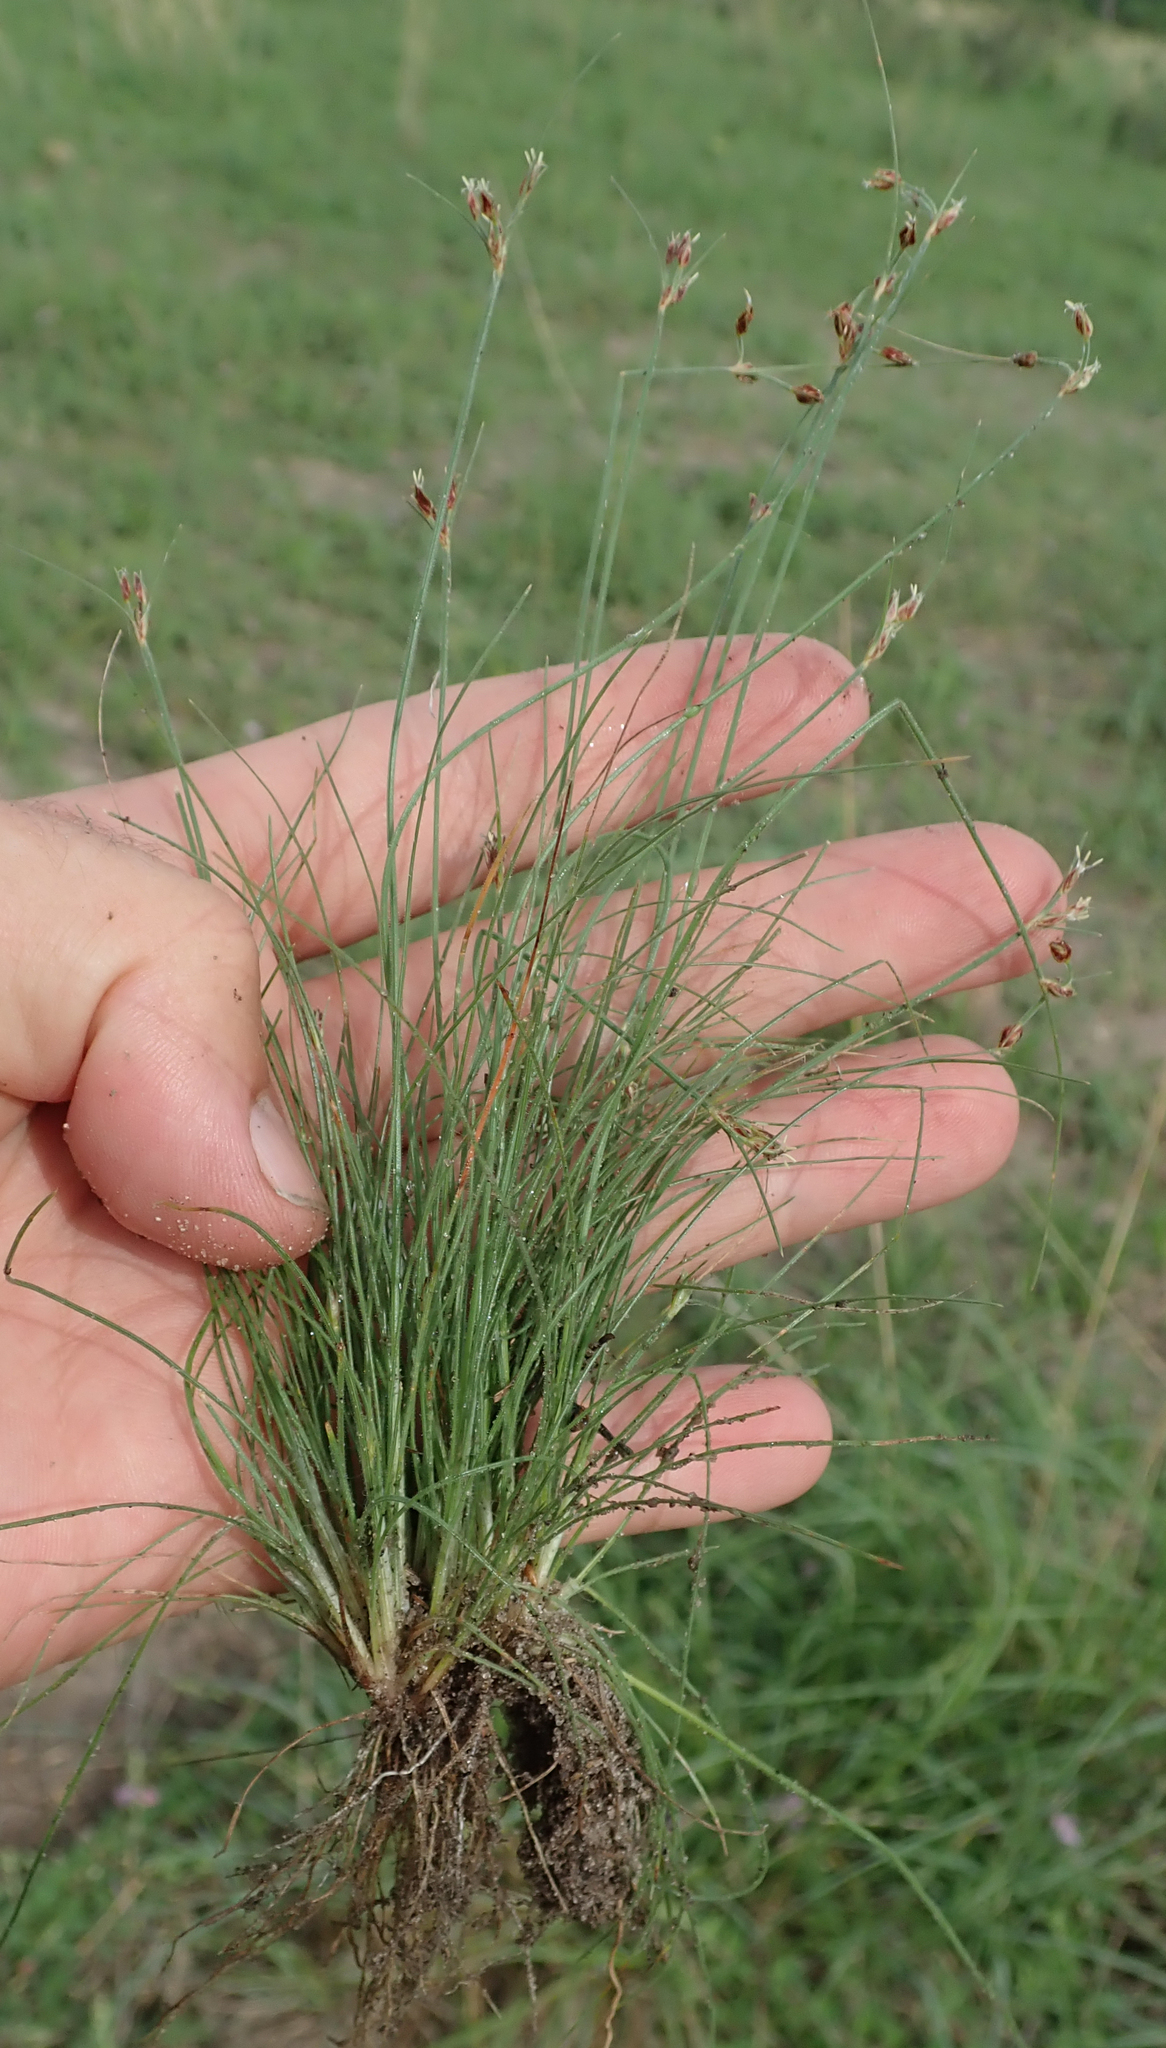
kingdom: Plantae
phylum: Tracheophyta
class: Liliopsida
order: Poales
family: Cyperaceae
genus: Bulbostylis
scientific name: Bulbostylis hispidula
